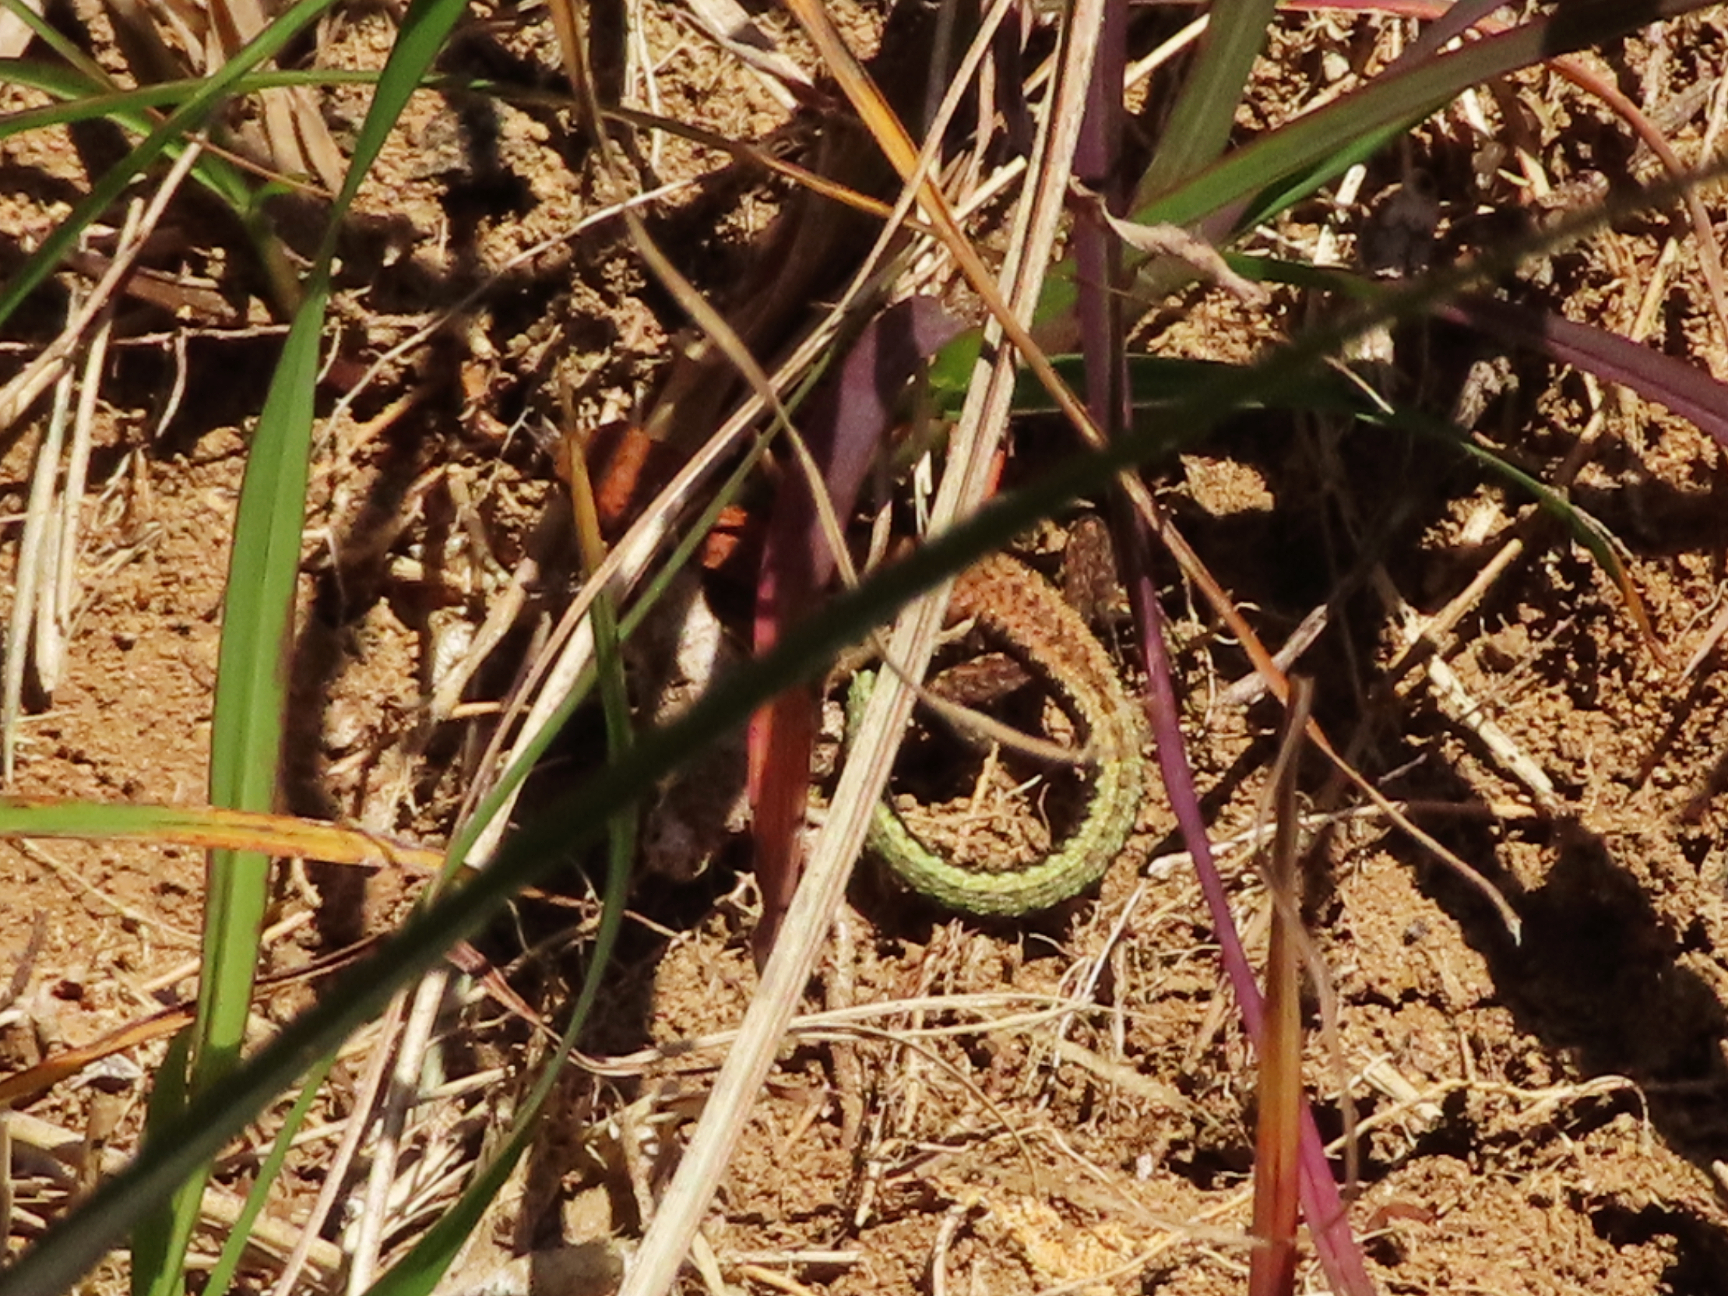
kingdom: Animalia
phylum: Chordata
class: Squamata
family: Lacertidae
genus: Darevskia
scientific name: Darevskia derjugini
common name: Derjugin's lizard
